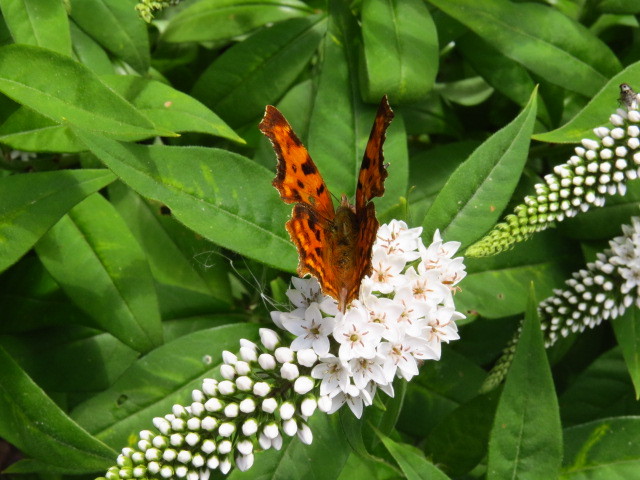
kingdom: Animalia
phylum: Arthropoda
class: Insecta
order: Lepidoptera
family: Nymphalidae
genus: Polygonia
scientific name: Polygonia c-album
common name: Comma
